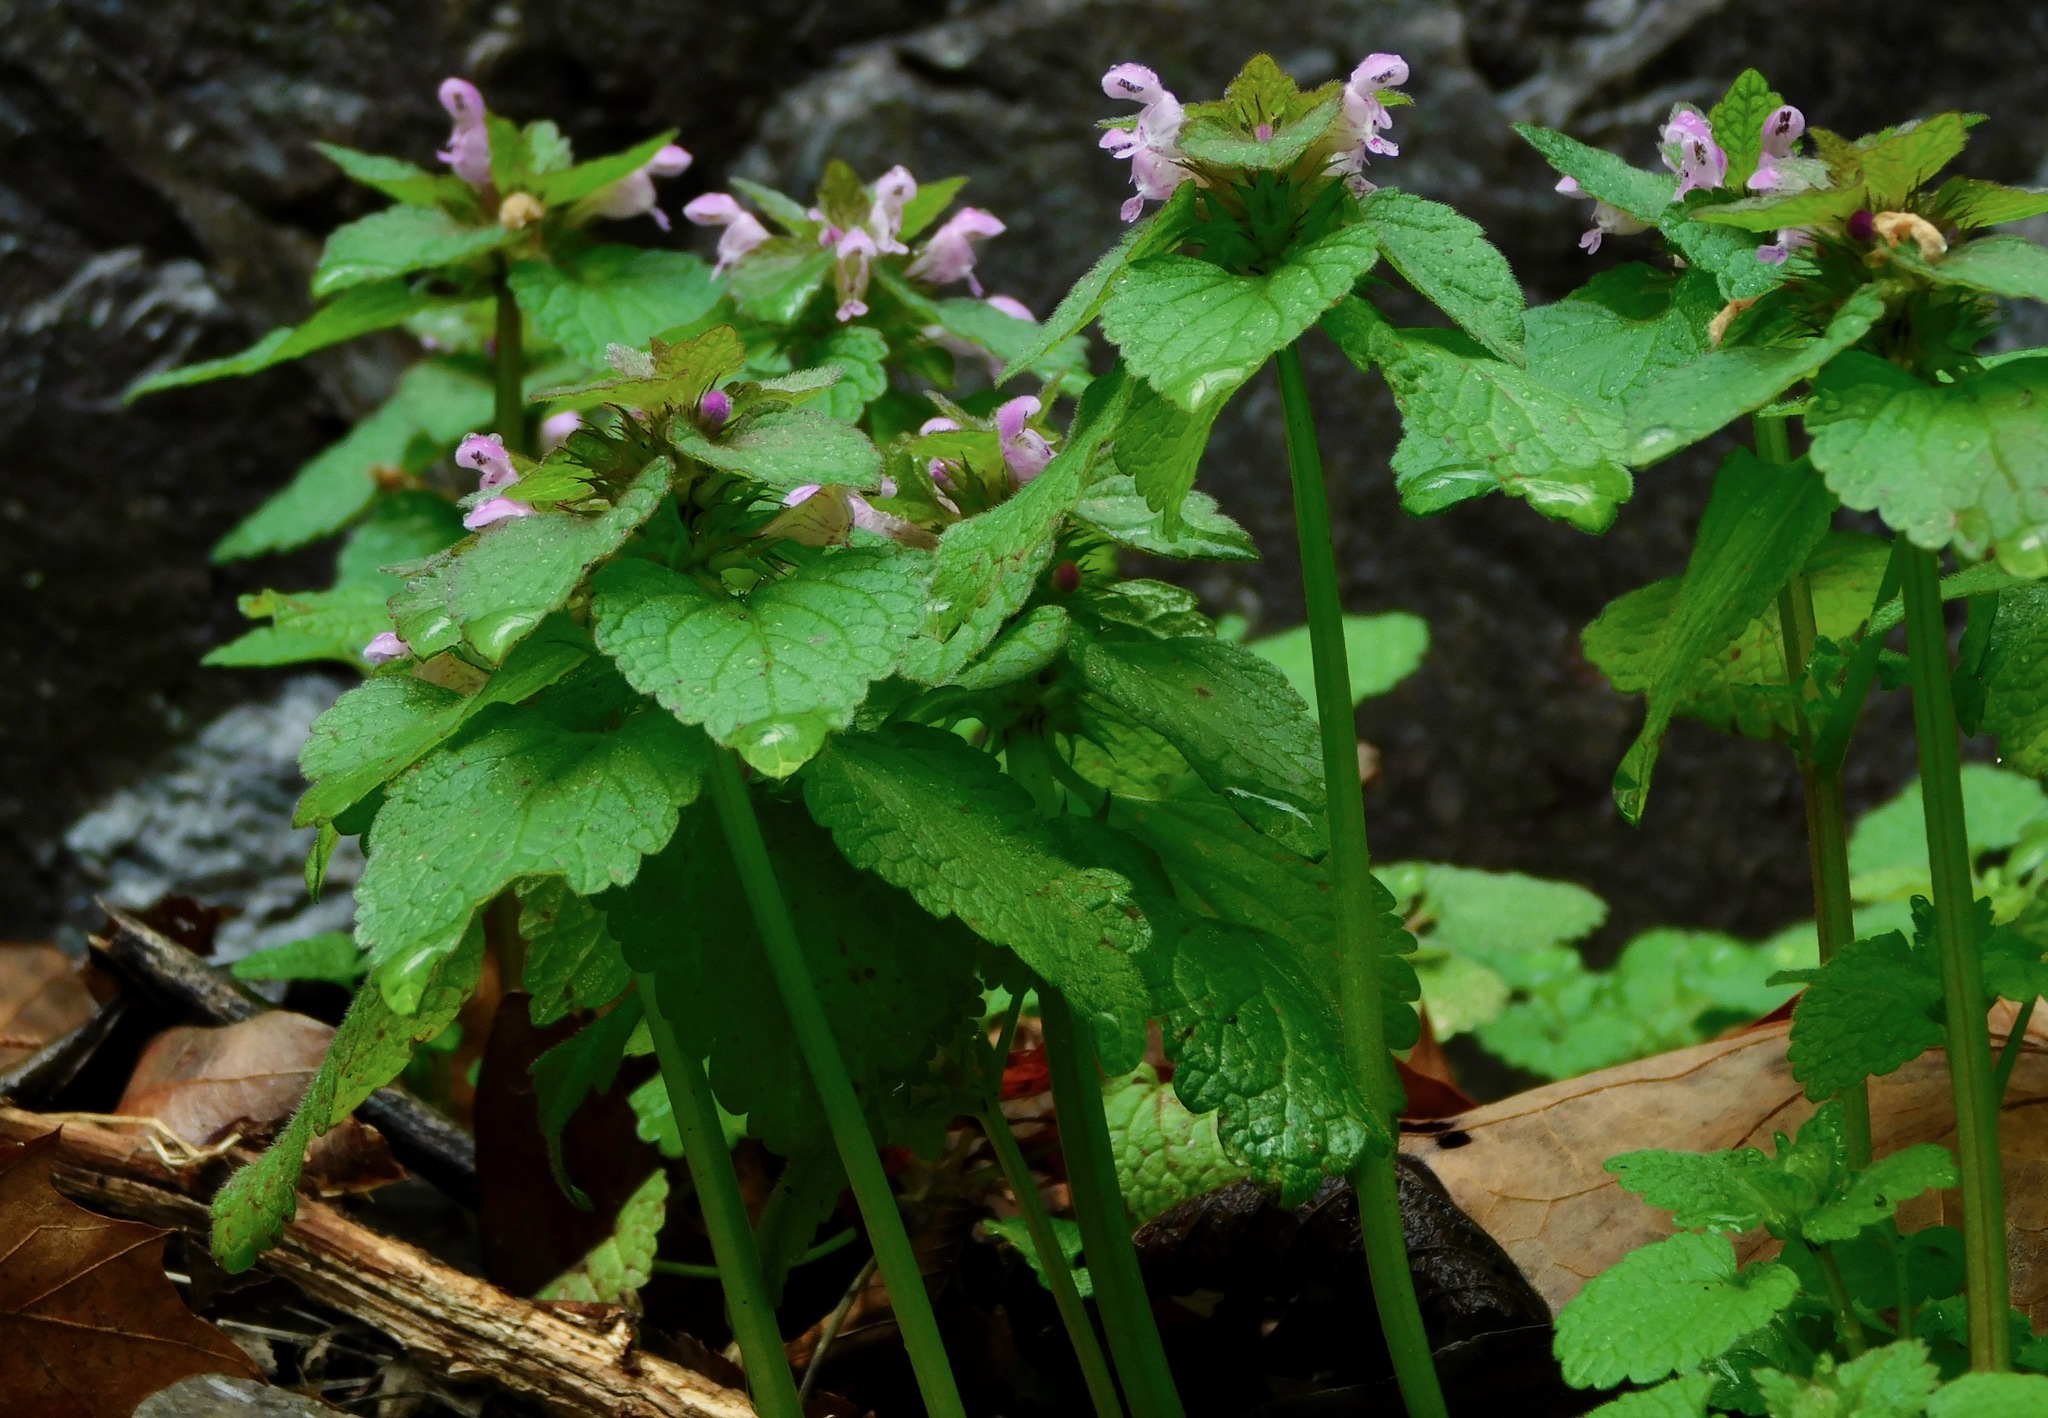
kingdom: Plantae
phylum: Tracheophyta
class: Magnoliopsida
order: Lamiales
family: Lamiaceae
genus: Lamium
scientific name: Lamium purpureum
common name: Red dead-nettle
